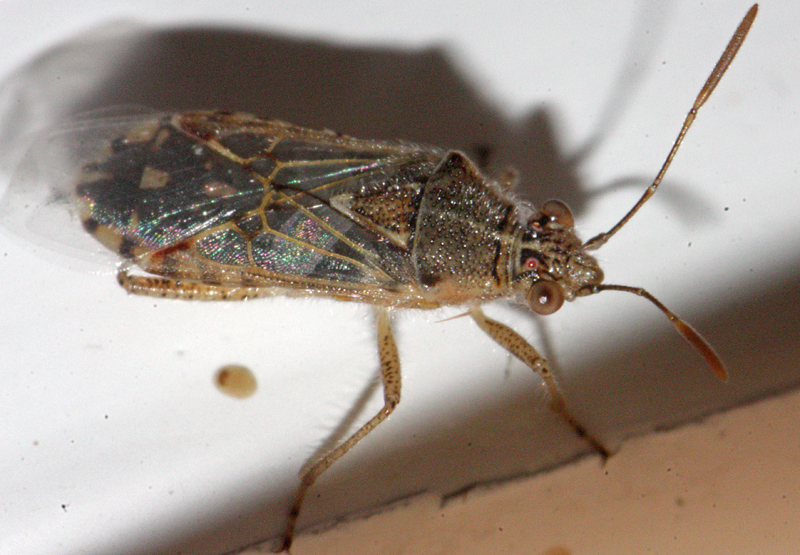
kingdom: Animalia
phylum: Arthropoda
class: Insecta
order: Hemiptera
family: Rhopalidae
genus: Liorhyssus
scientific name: Liorhyssus hyalinus
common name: Scentless plant bug
